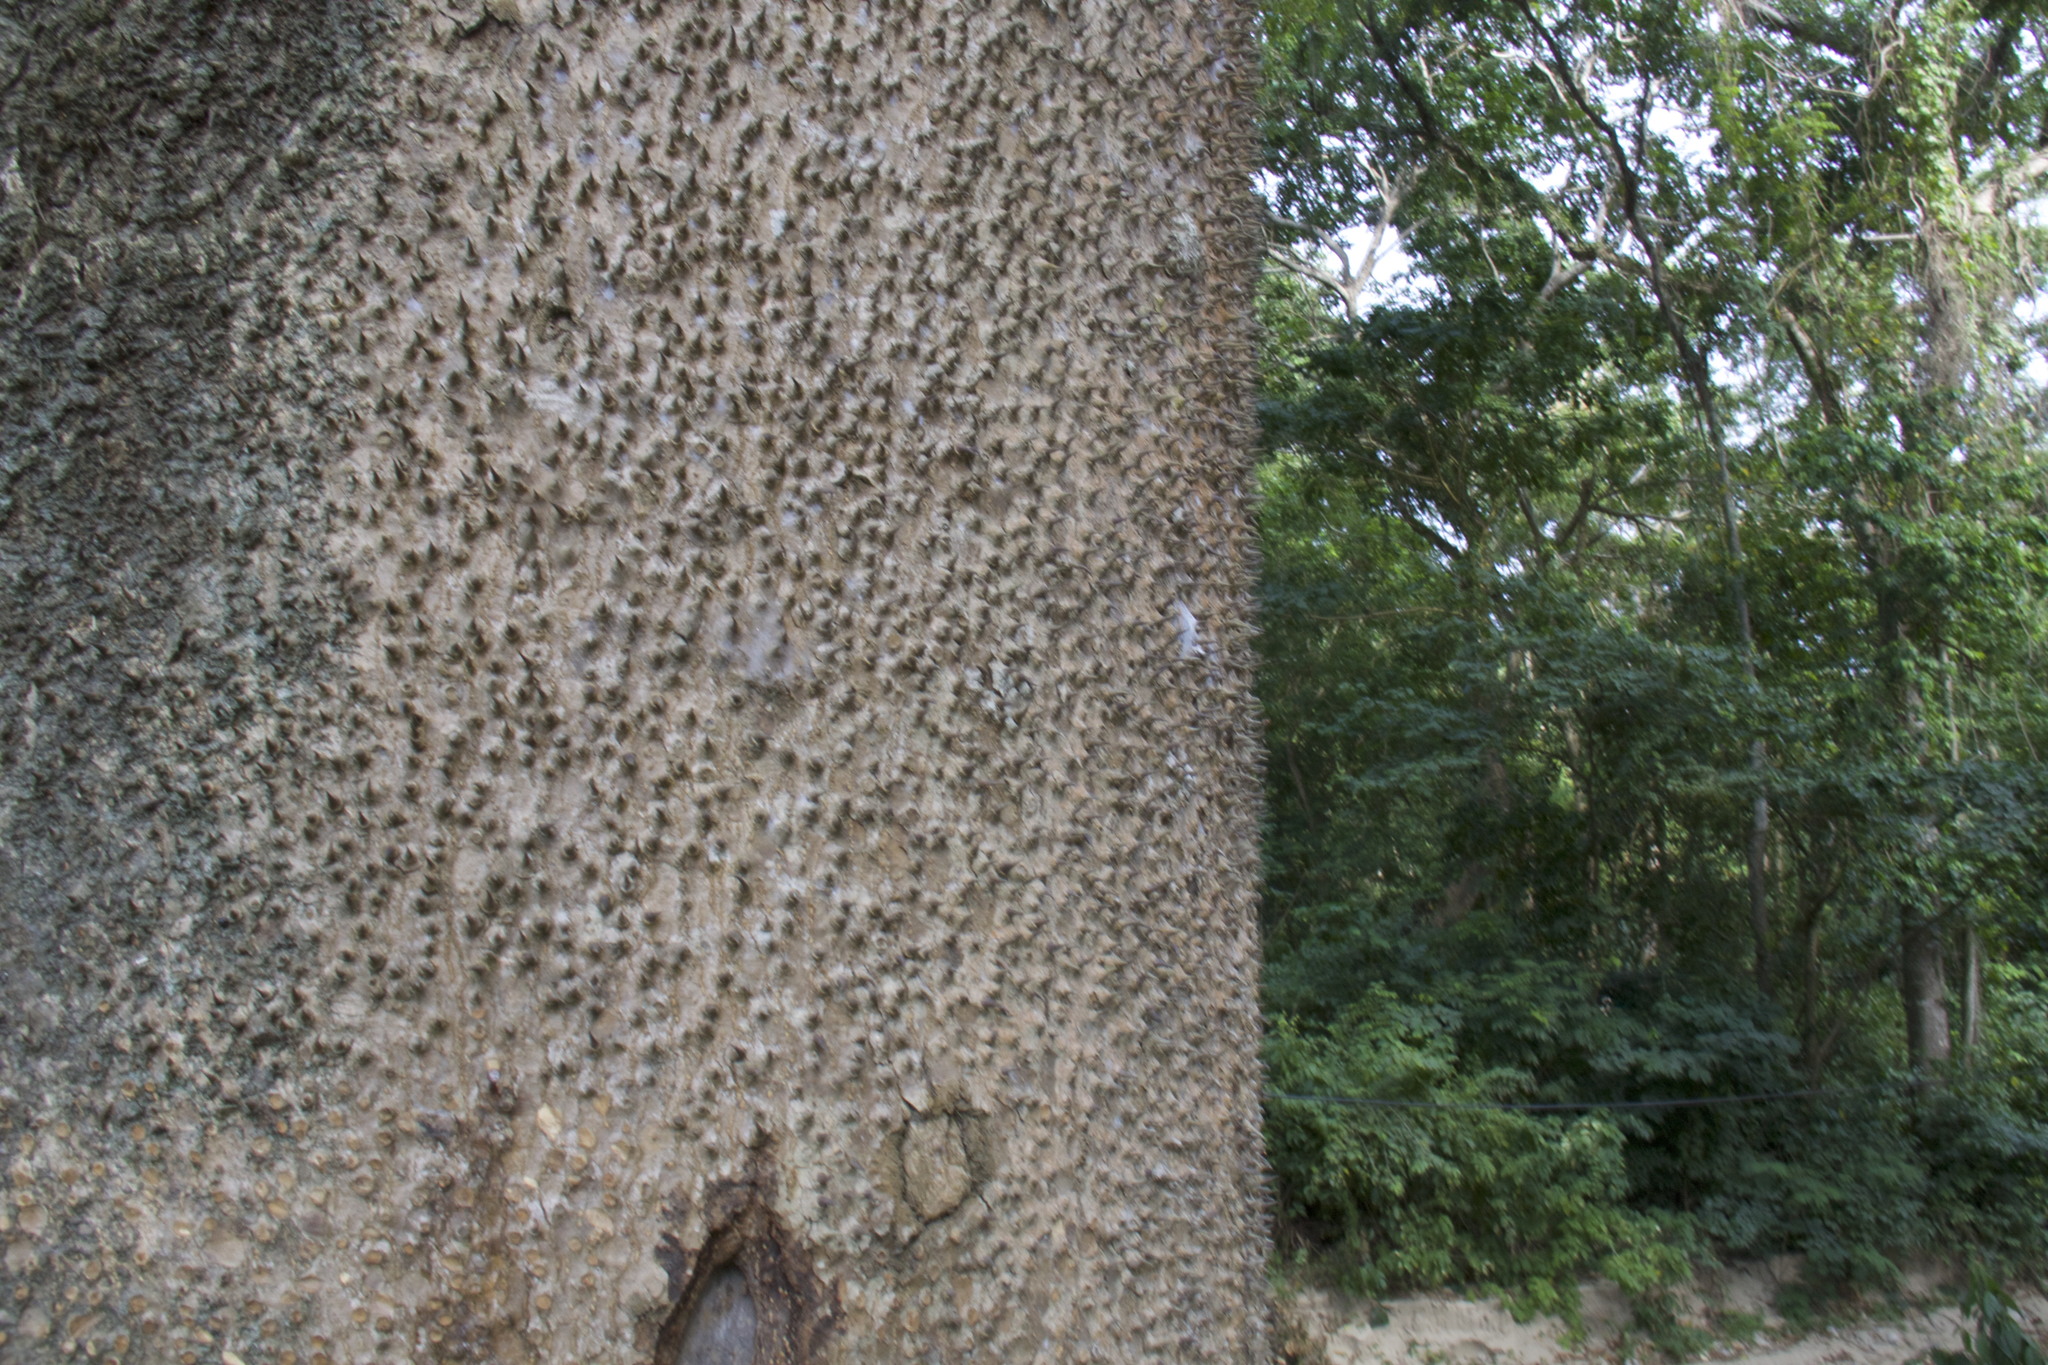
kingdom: Plantae
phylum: Tracheophyta
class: Magnoliopsida
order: Malpighiales
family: Euphorbiaceae
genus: Hura
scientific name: Hura crepitans
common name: Sandboxtree
